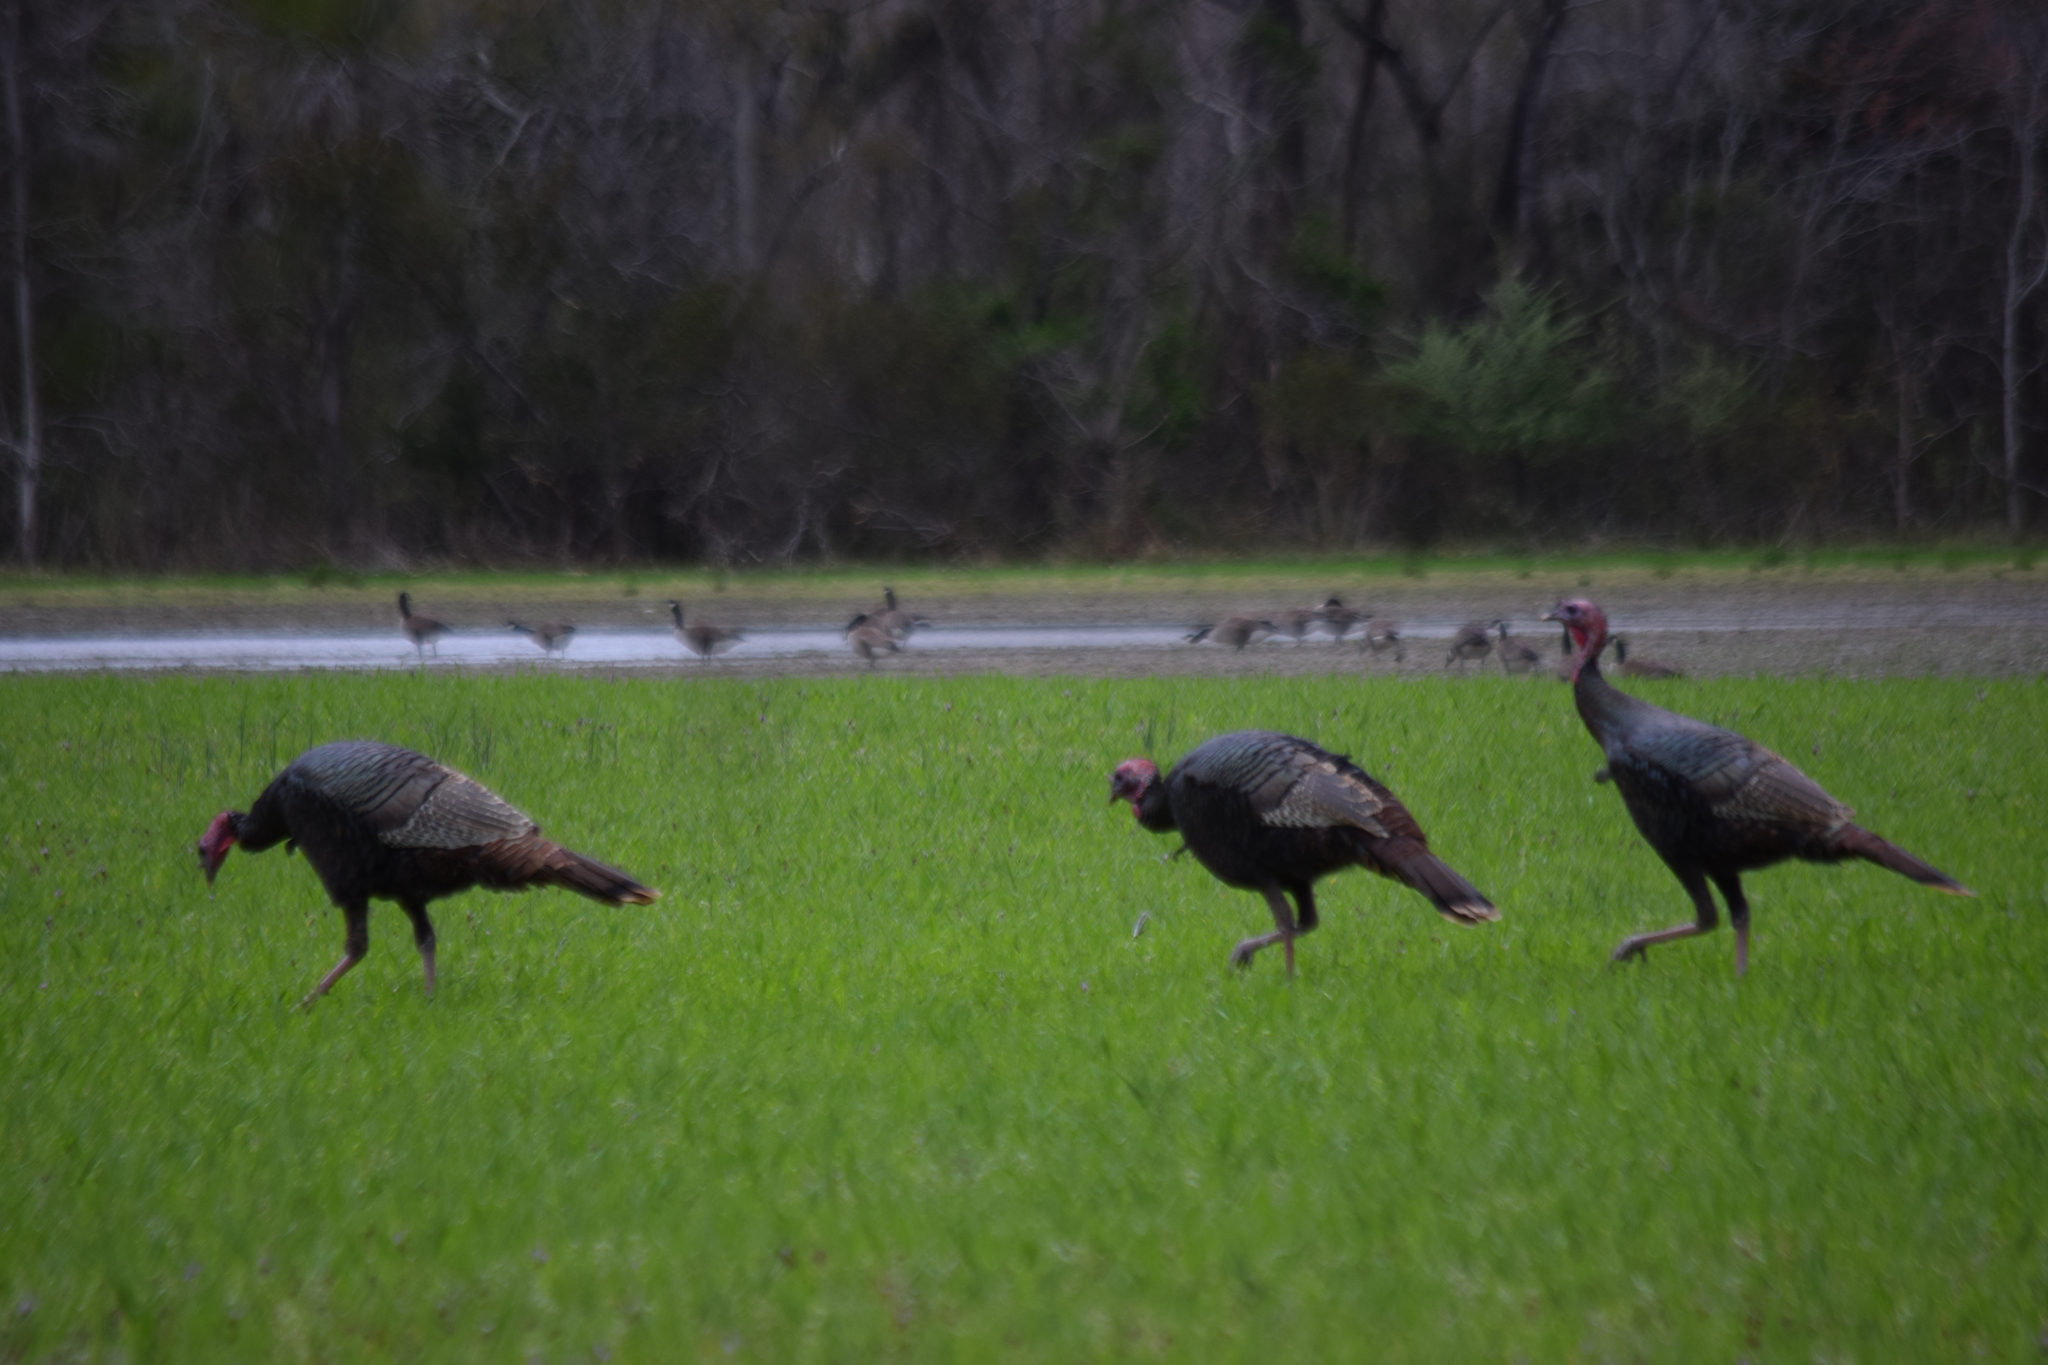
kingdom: Animalia
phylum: Chordata
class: Aves
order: Galliformes
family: Phasianidae
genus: Meleagris
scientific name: Meleagris gallopavo
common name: Wild turkey
